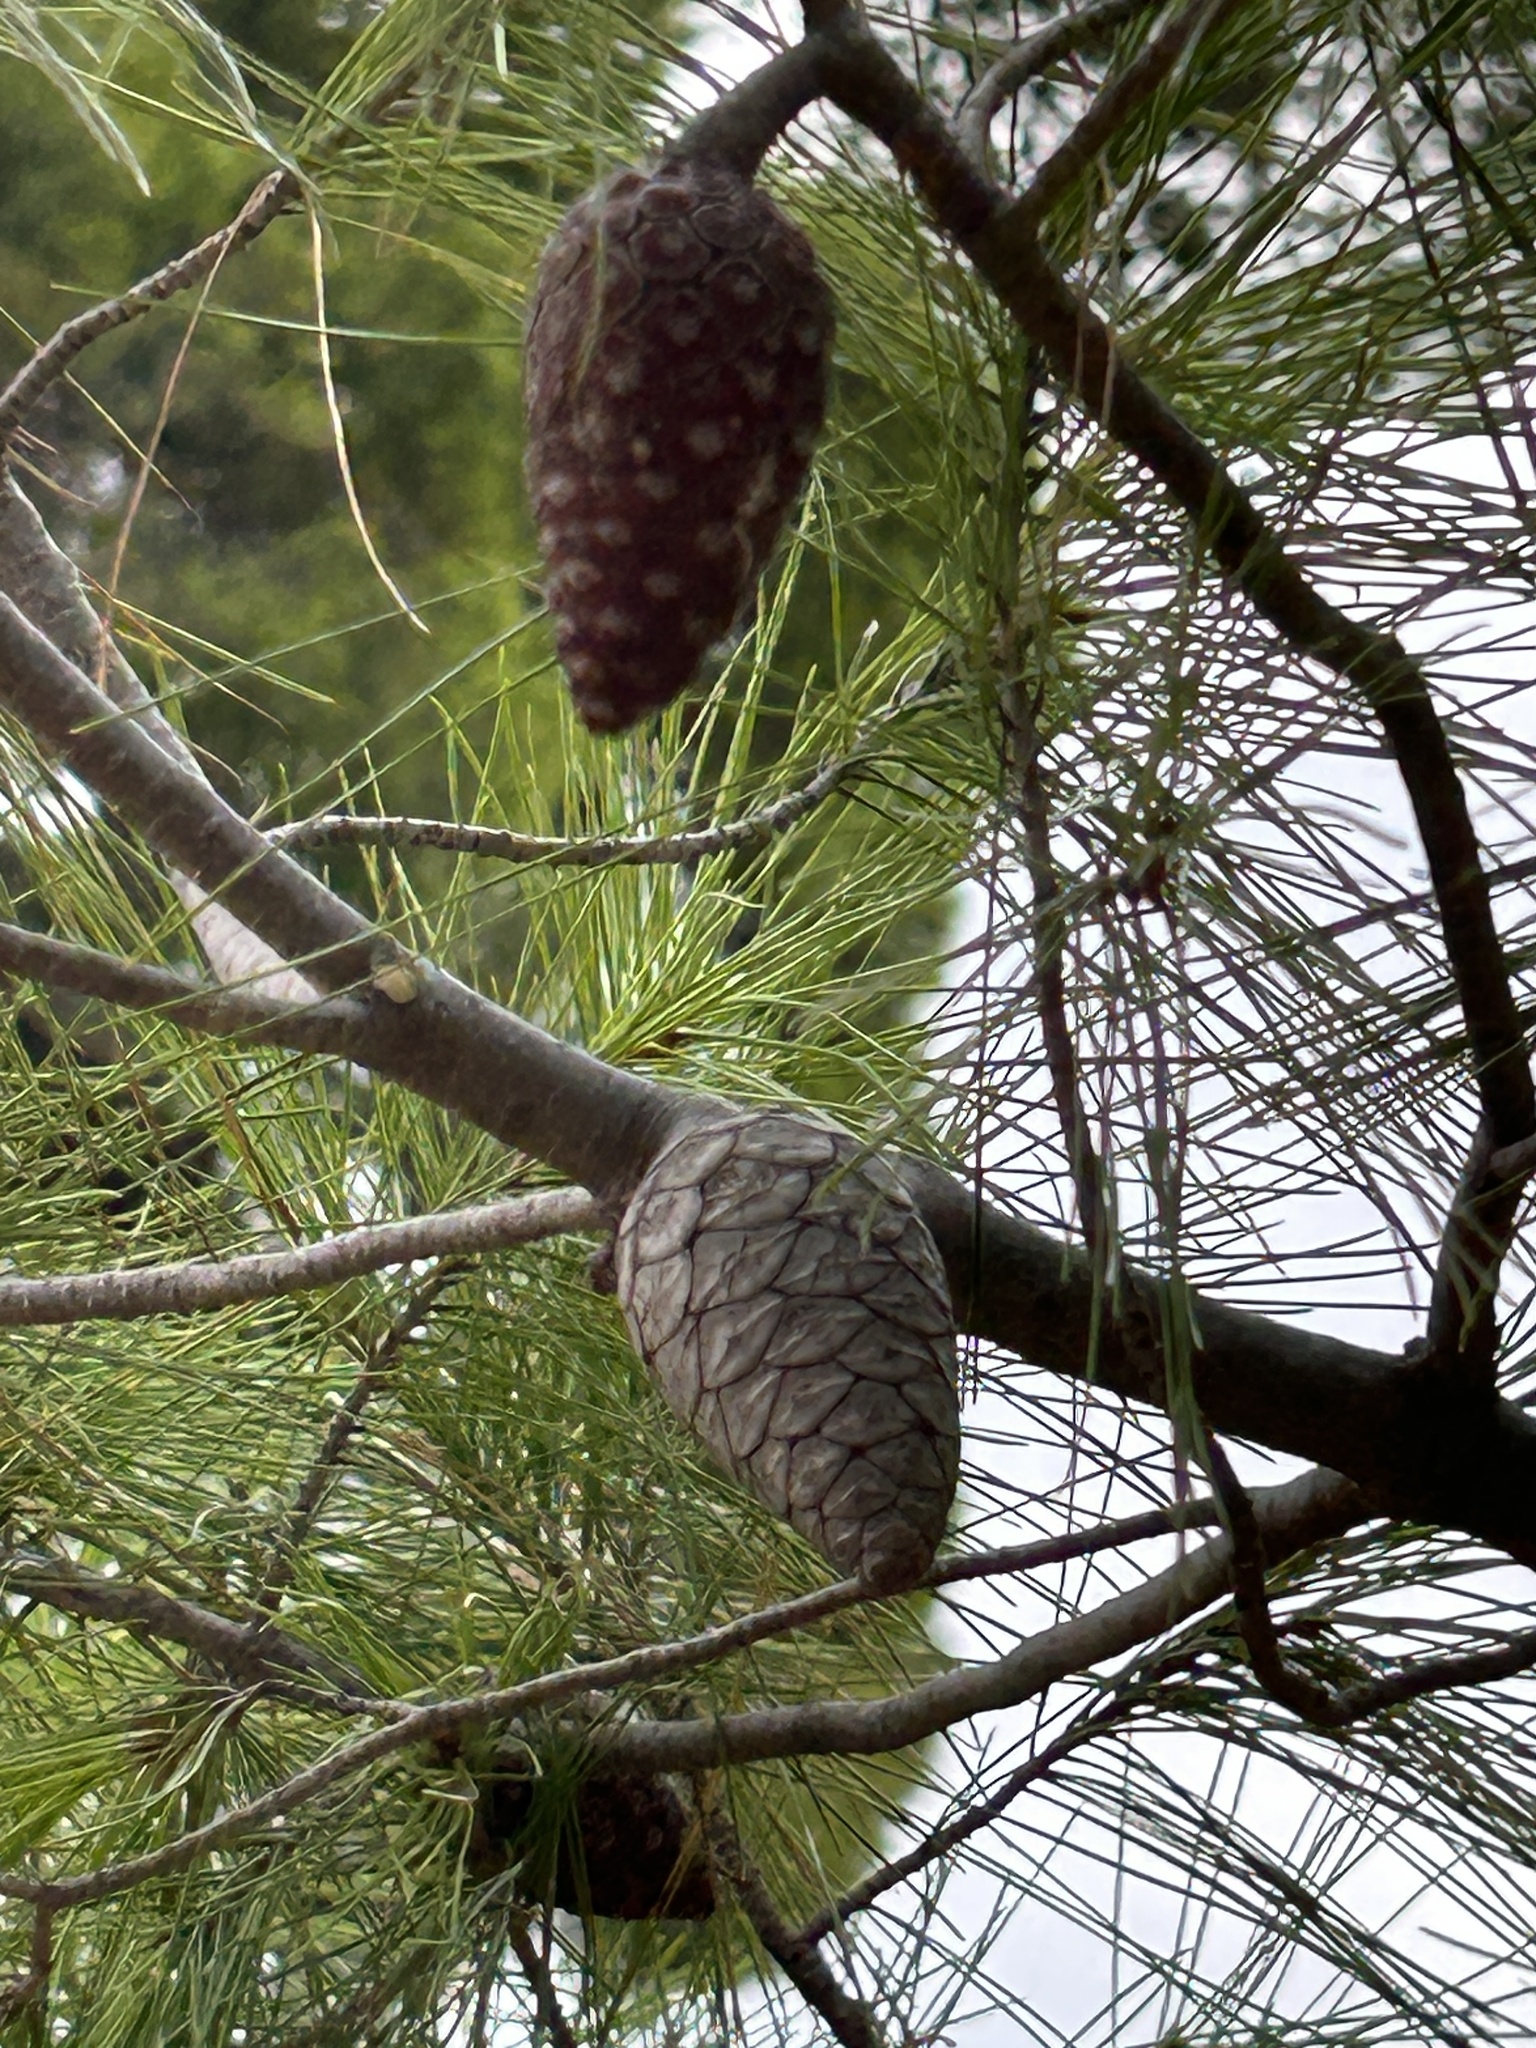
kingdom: Plantae
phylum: Tracheophyta
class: Pinopsida
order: Pinales
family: Pinaceae
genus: Pinus
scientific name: Pinus halepensis
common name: Aleppo pine
